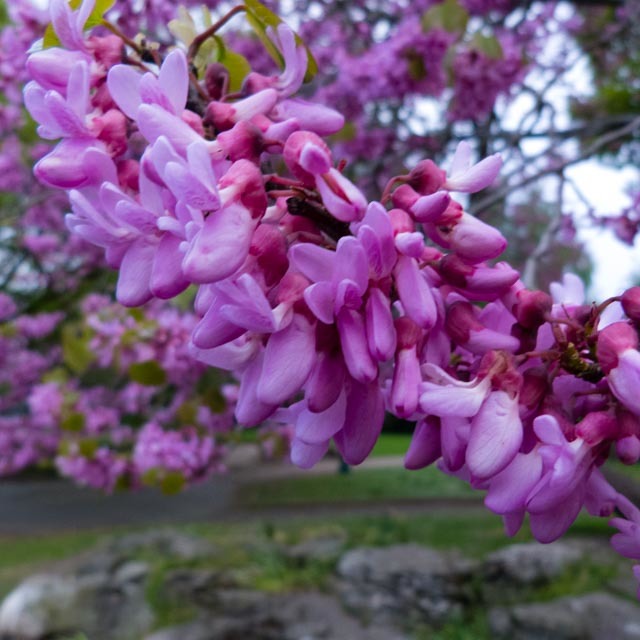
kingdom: Plantae
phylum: Tracheophyta
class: Magnoliopsida
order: Fabales
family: Fabaceae
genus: Cercis
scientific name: Cercis siliquastrum
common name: Judas tree
